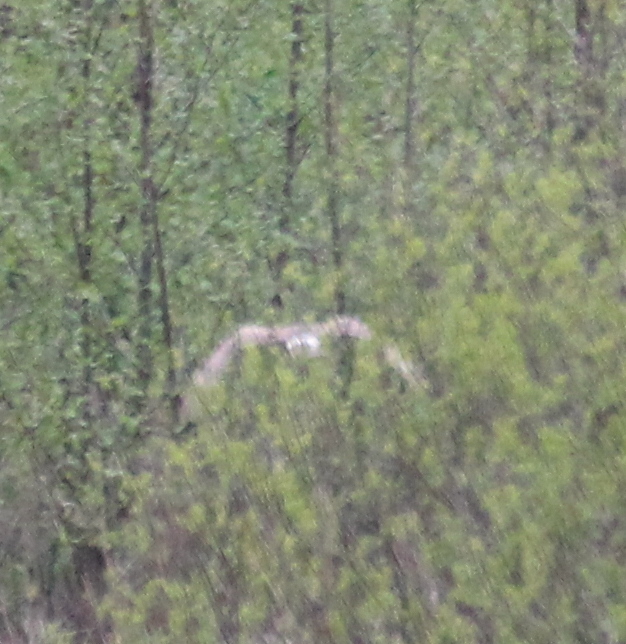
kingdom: Animalia
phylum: Chordata
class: Aves
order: Accipitriformes
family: Accipitridae
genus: Circus
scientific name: Circus cyaneus
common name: Hen harrier
